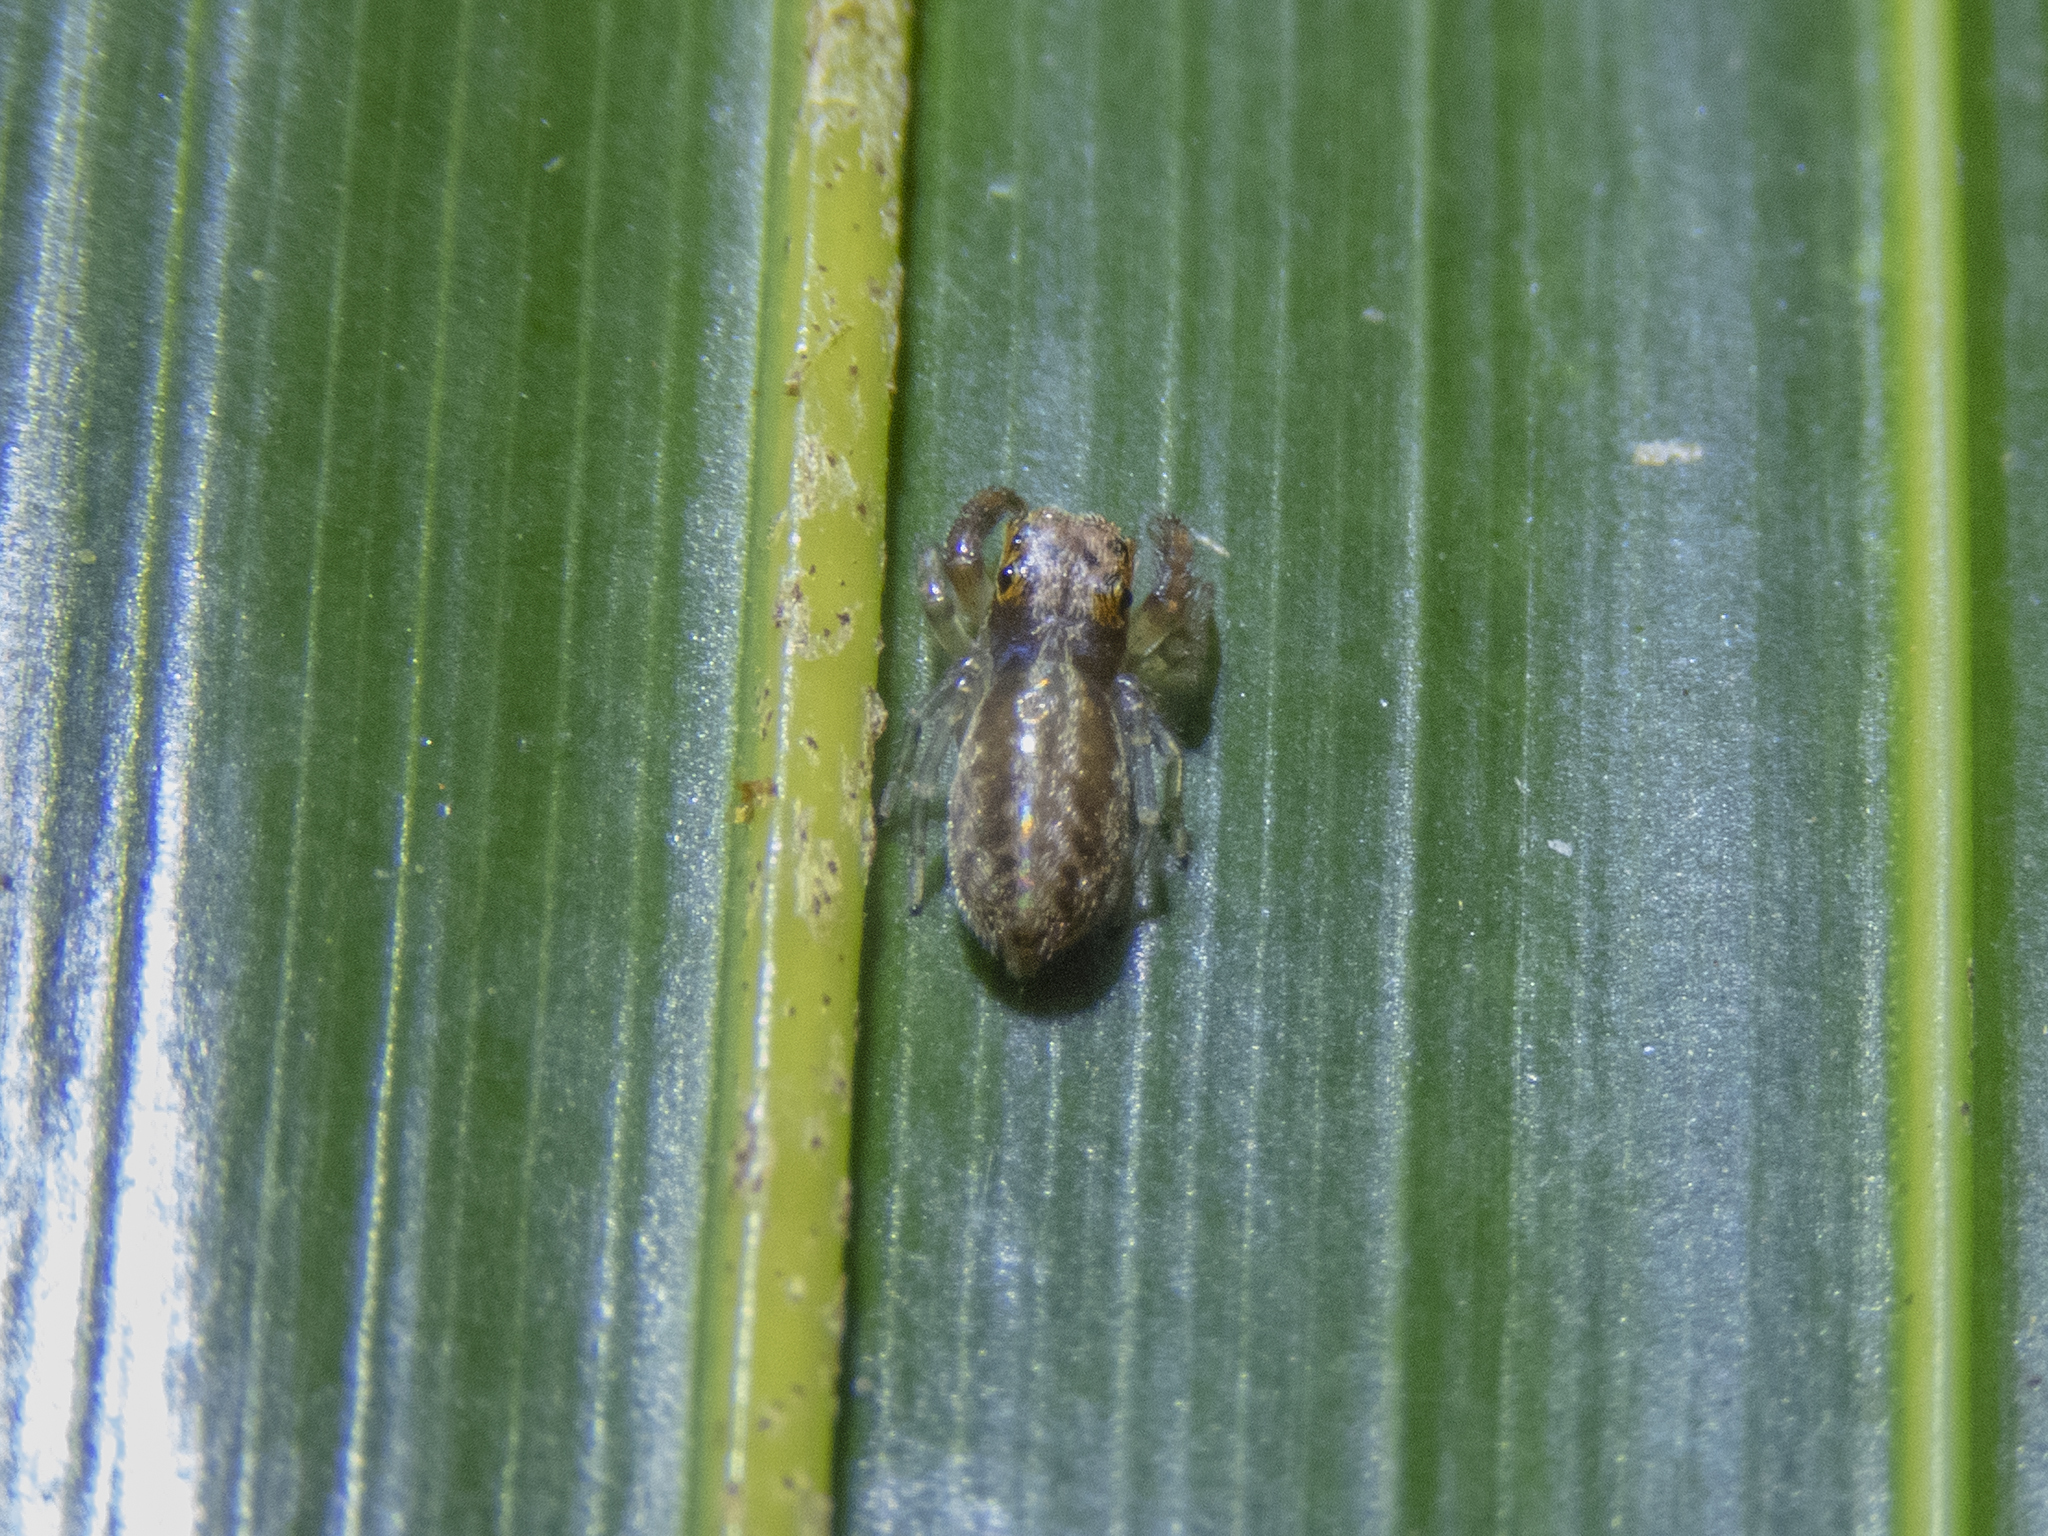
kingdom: Animalia
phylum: Arthropoda
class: Arachnida
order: Araneae
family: Salticidae
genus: Trite
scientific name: Trite mustilina
